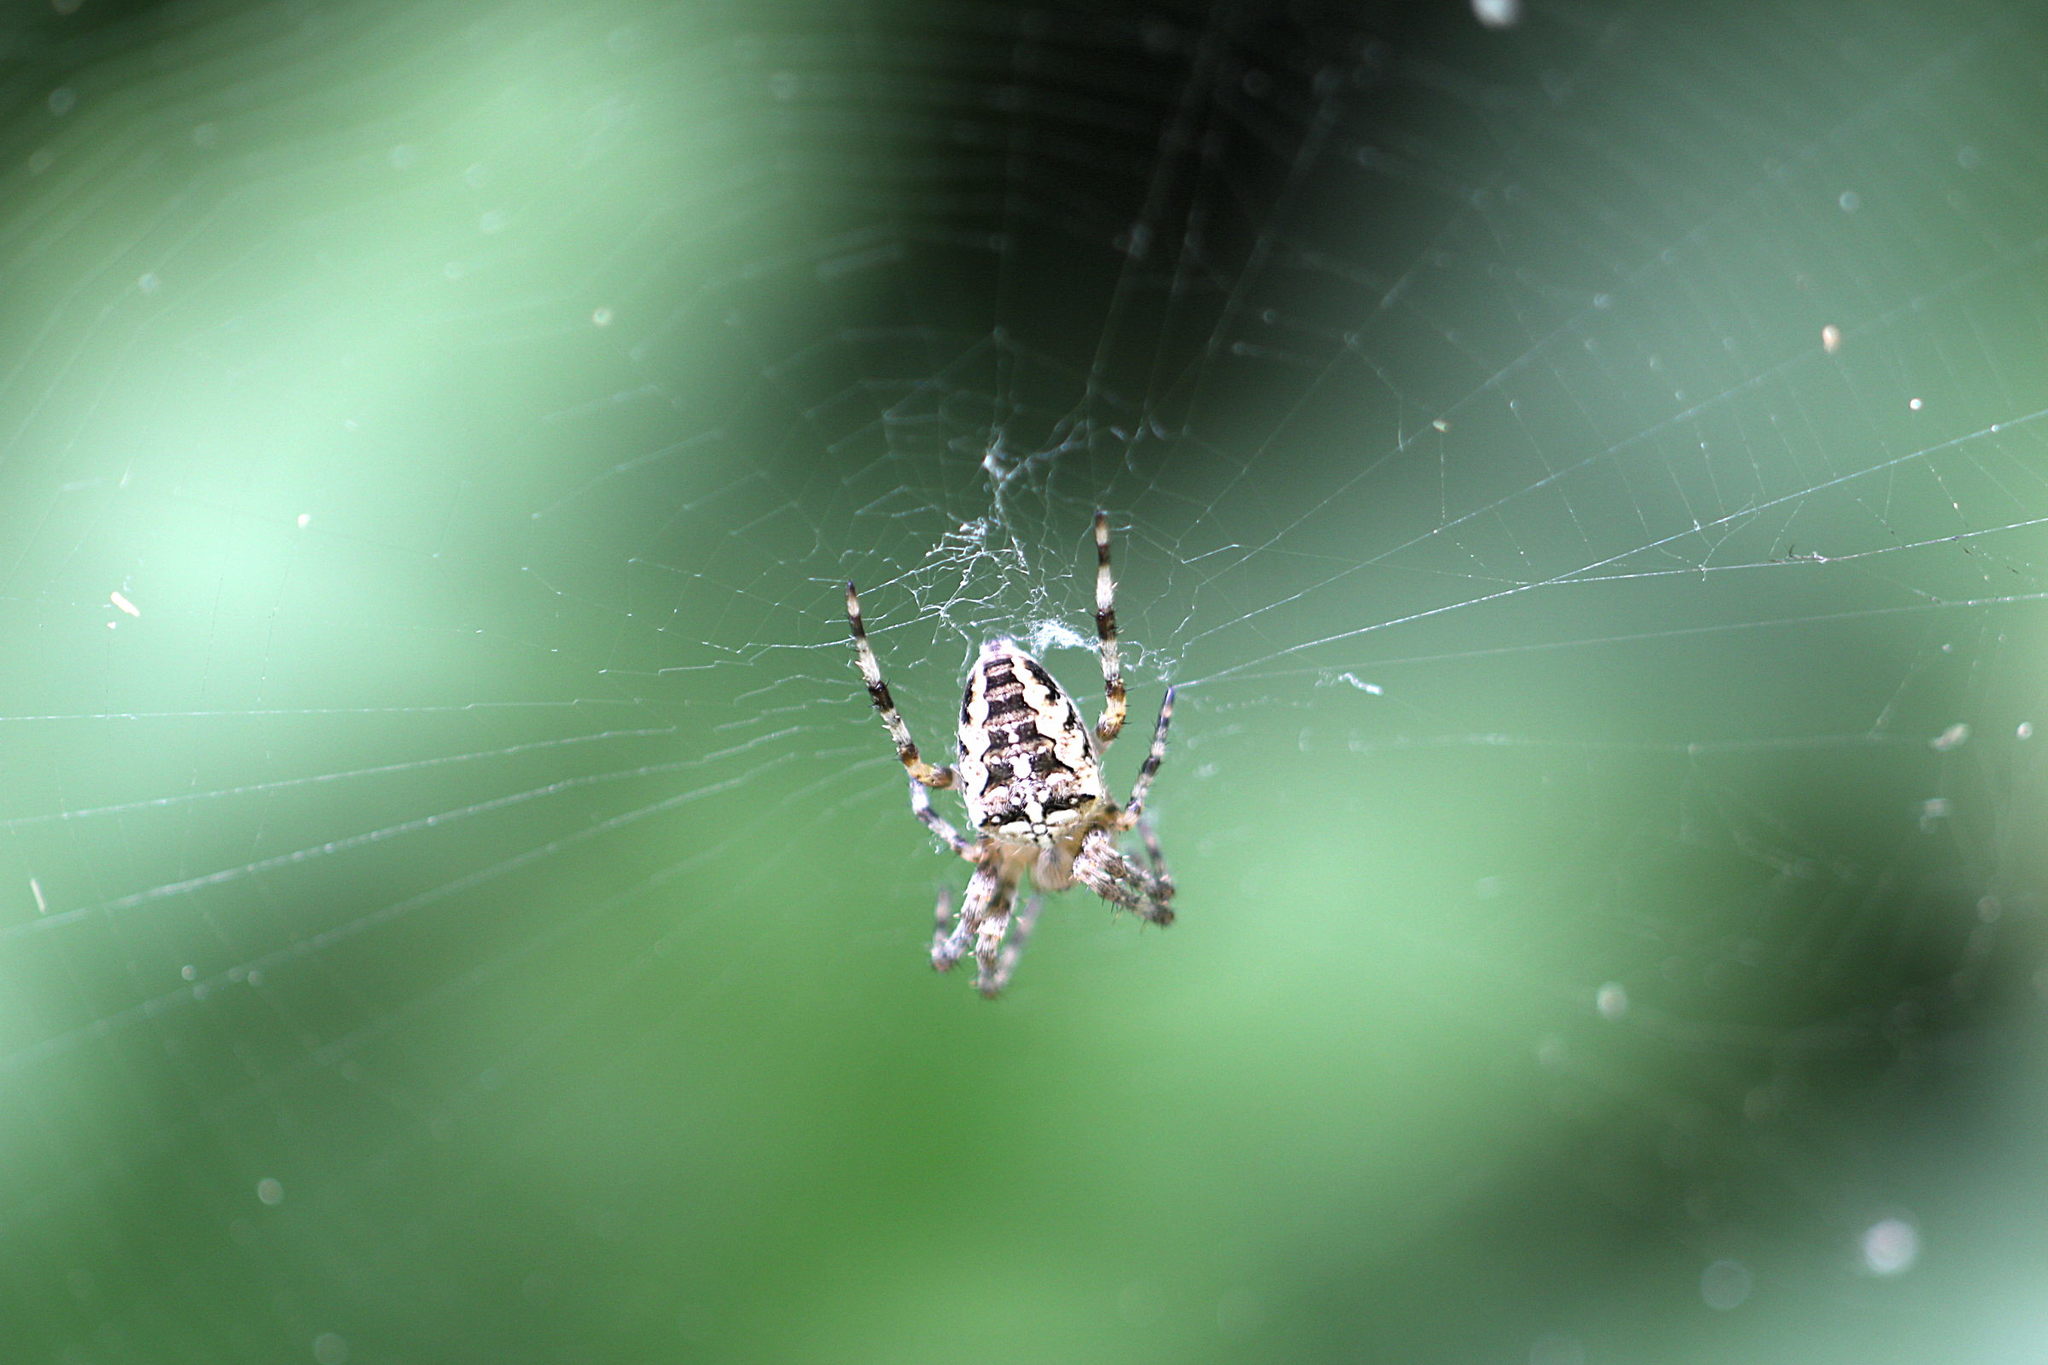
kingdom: Animalia
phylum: Arthropoda
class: Arachnida
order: Araneae
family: Araneidae
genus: Araneus
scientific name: Araneus diadematus
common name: Cross orbweaver
